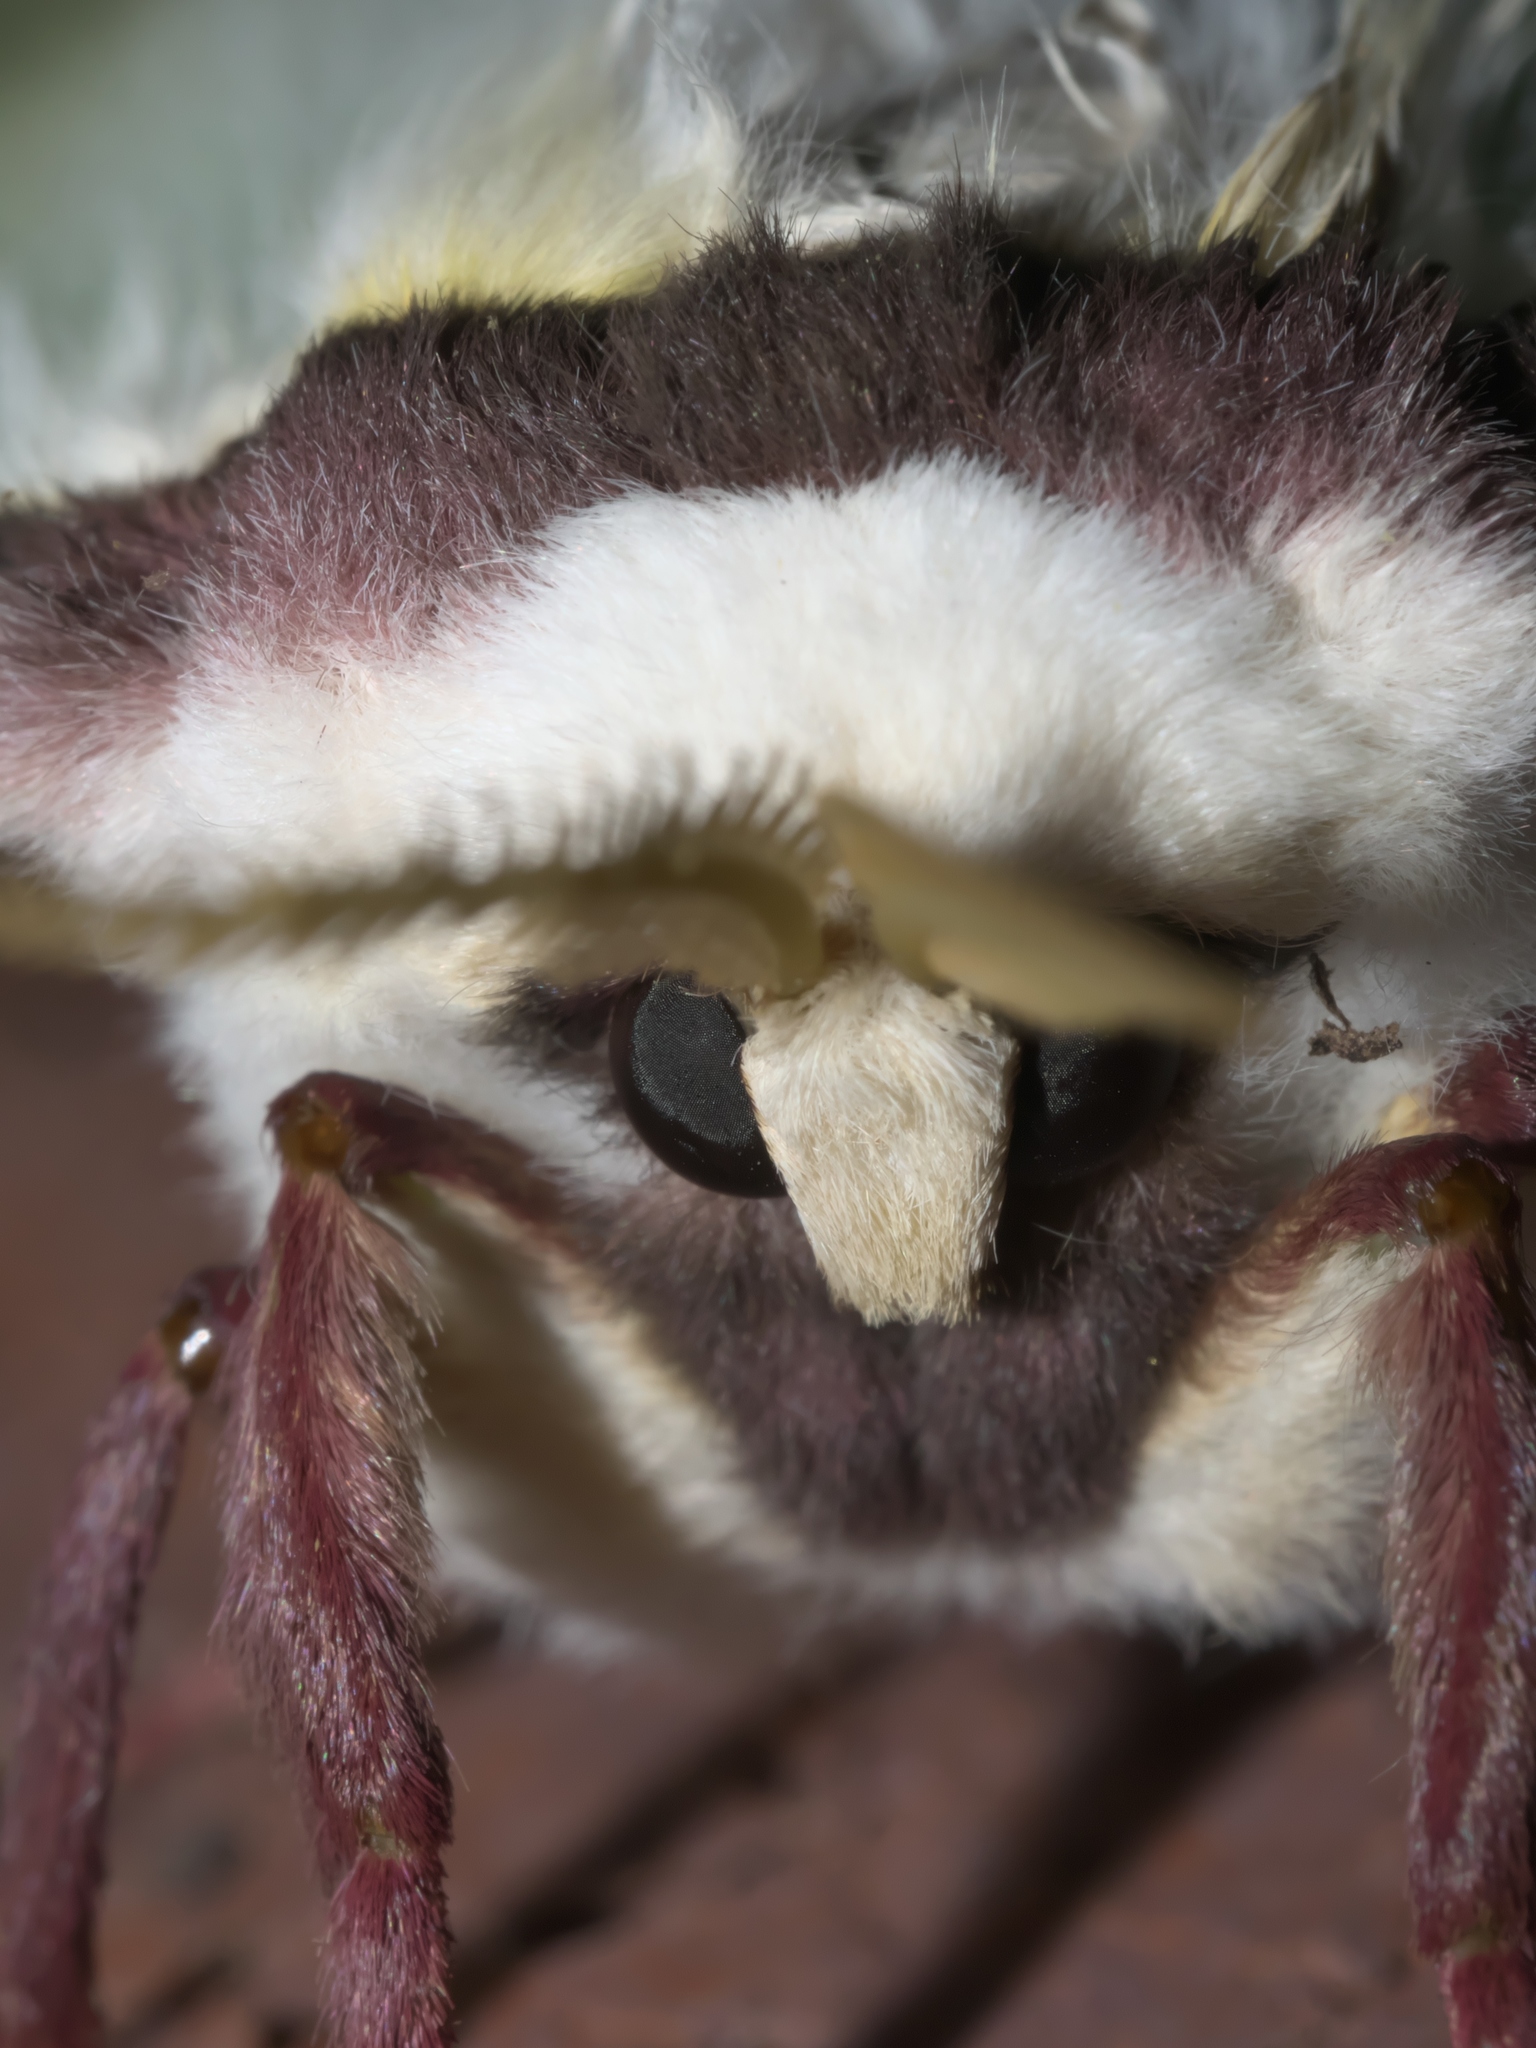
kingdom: Animalia
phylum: Arthropoda
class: Insecta
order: Lepidoptera
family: Saturniidae
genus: Actias
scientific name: Actias luna
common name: Luna moth
